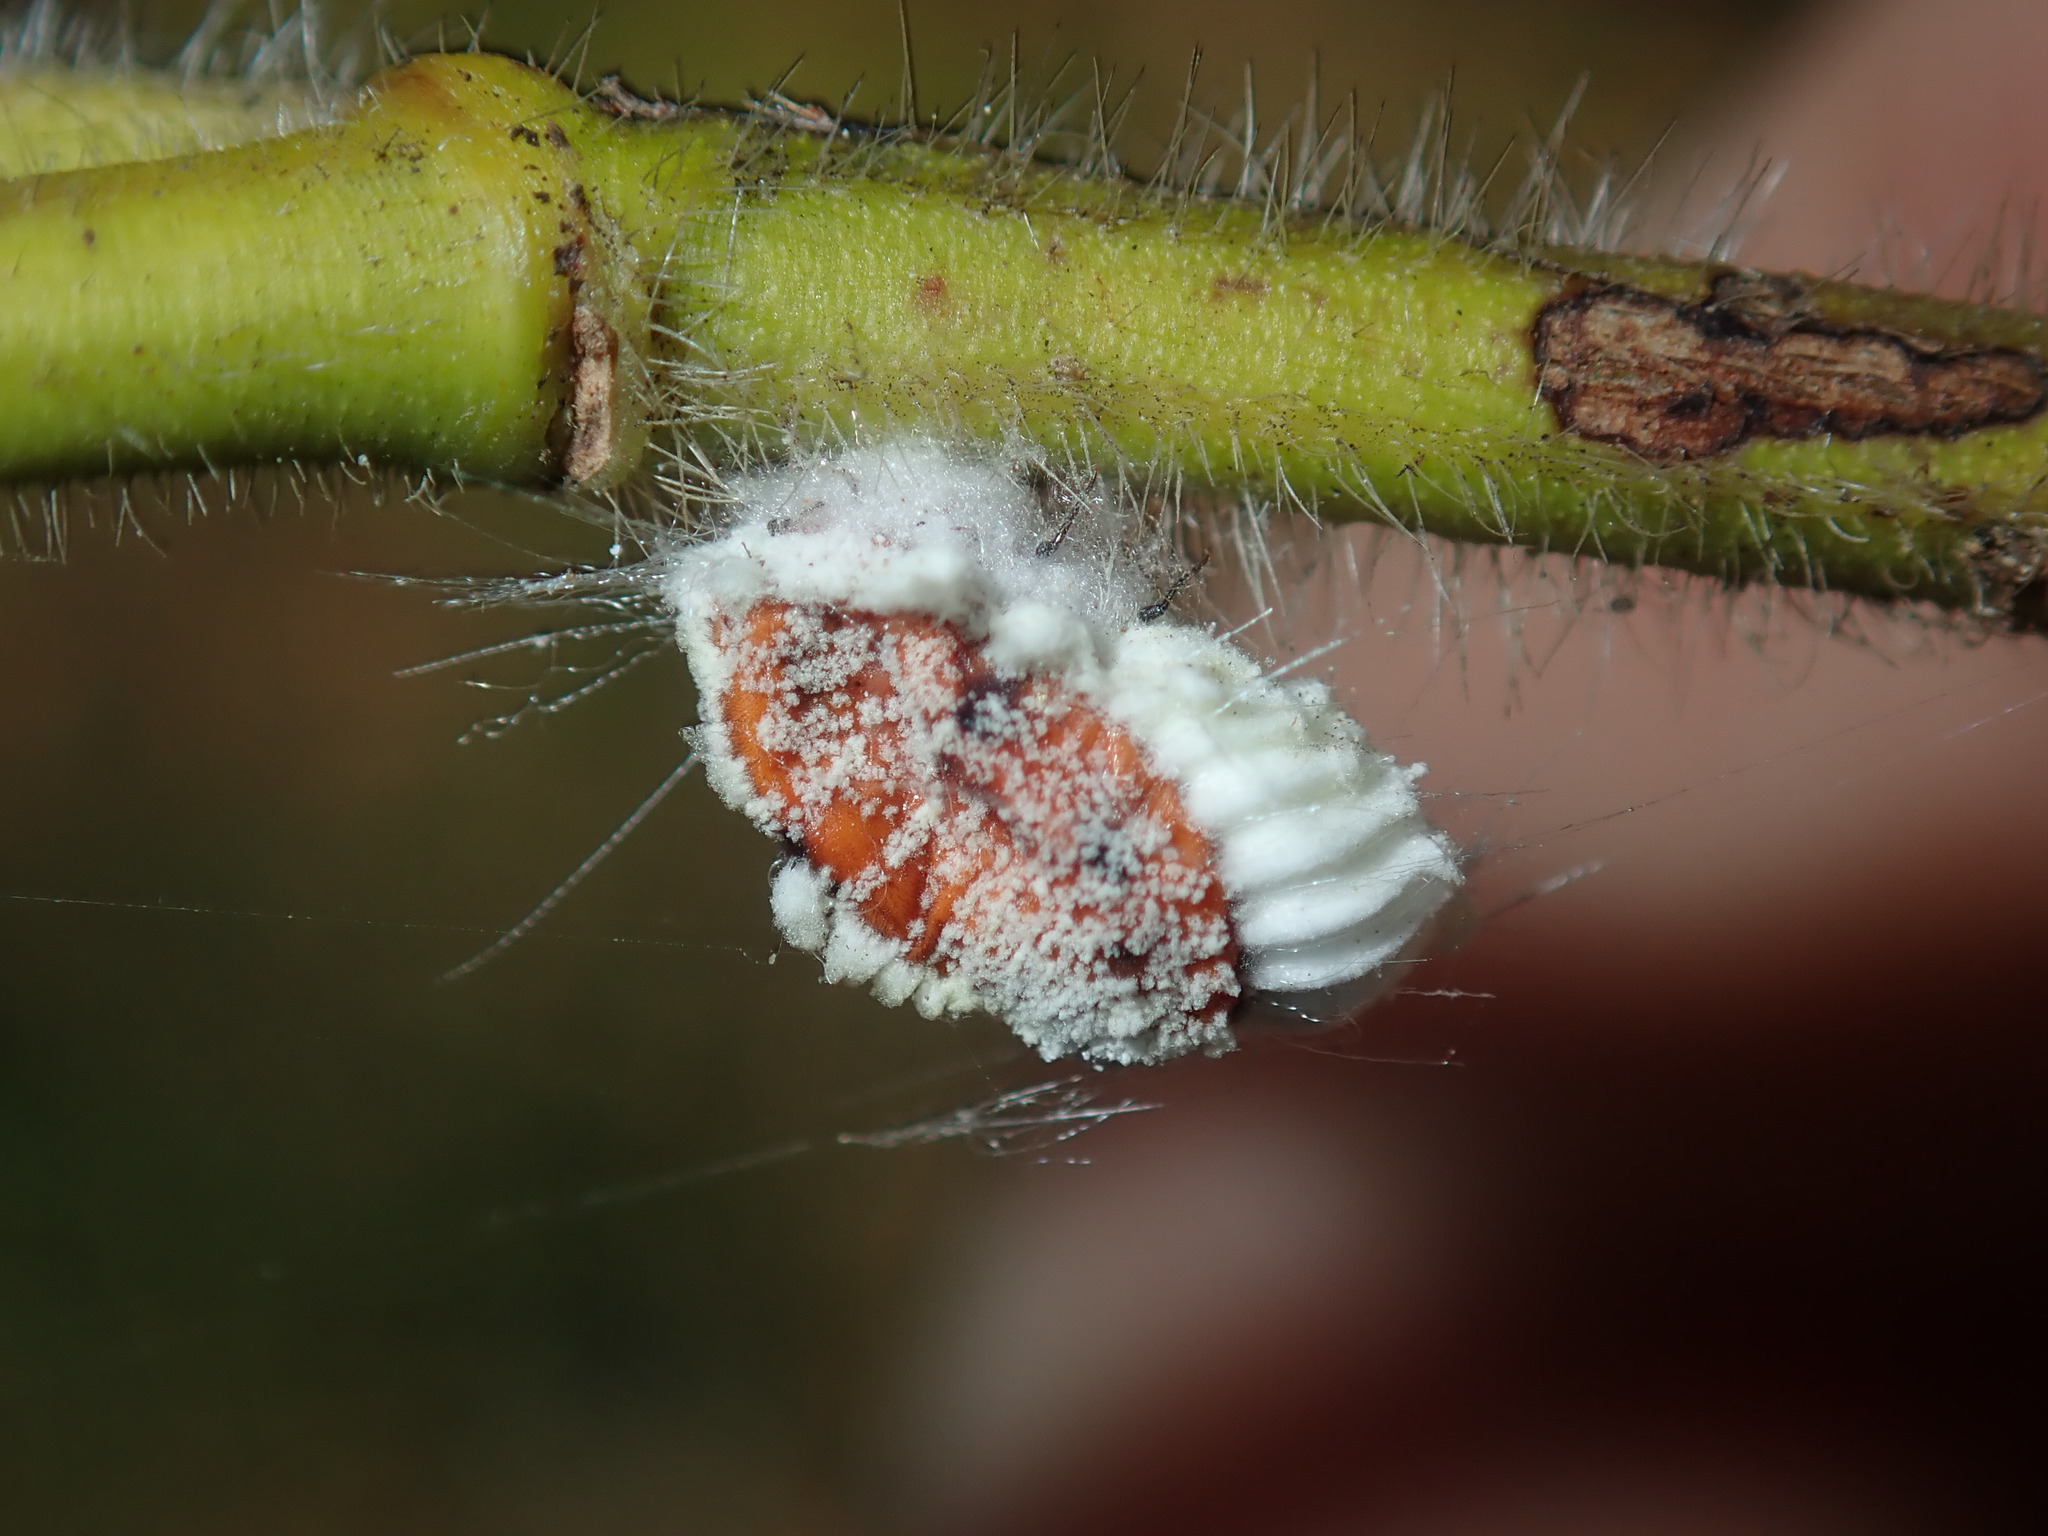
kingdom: Animalia
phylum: Arthropoda
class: Insecta
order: Hemiptera
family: Margarodidae
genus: Icerya
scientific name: Icerya purchasi
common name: Cottony cushion scale
